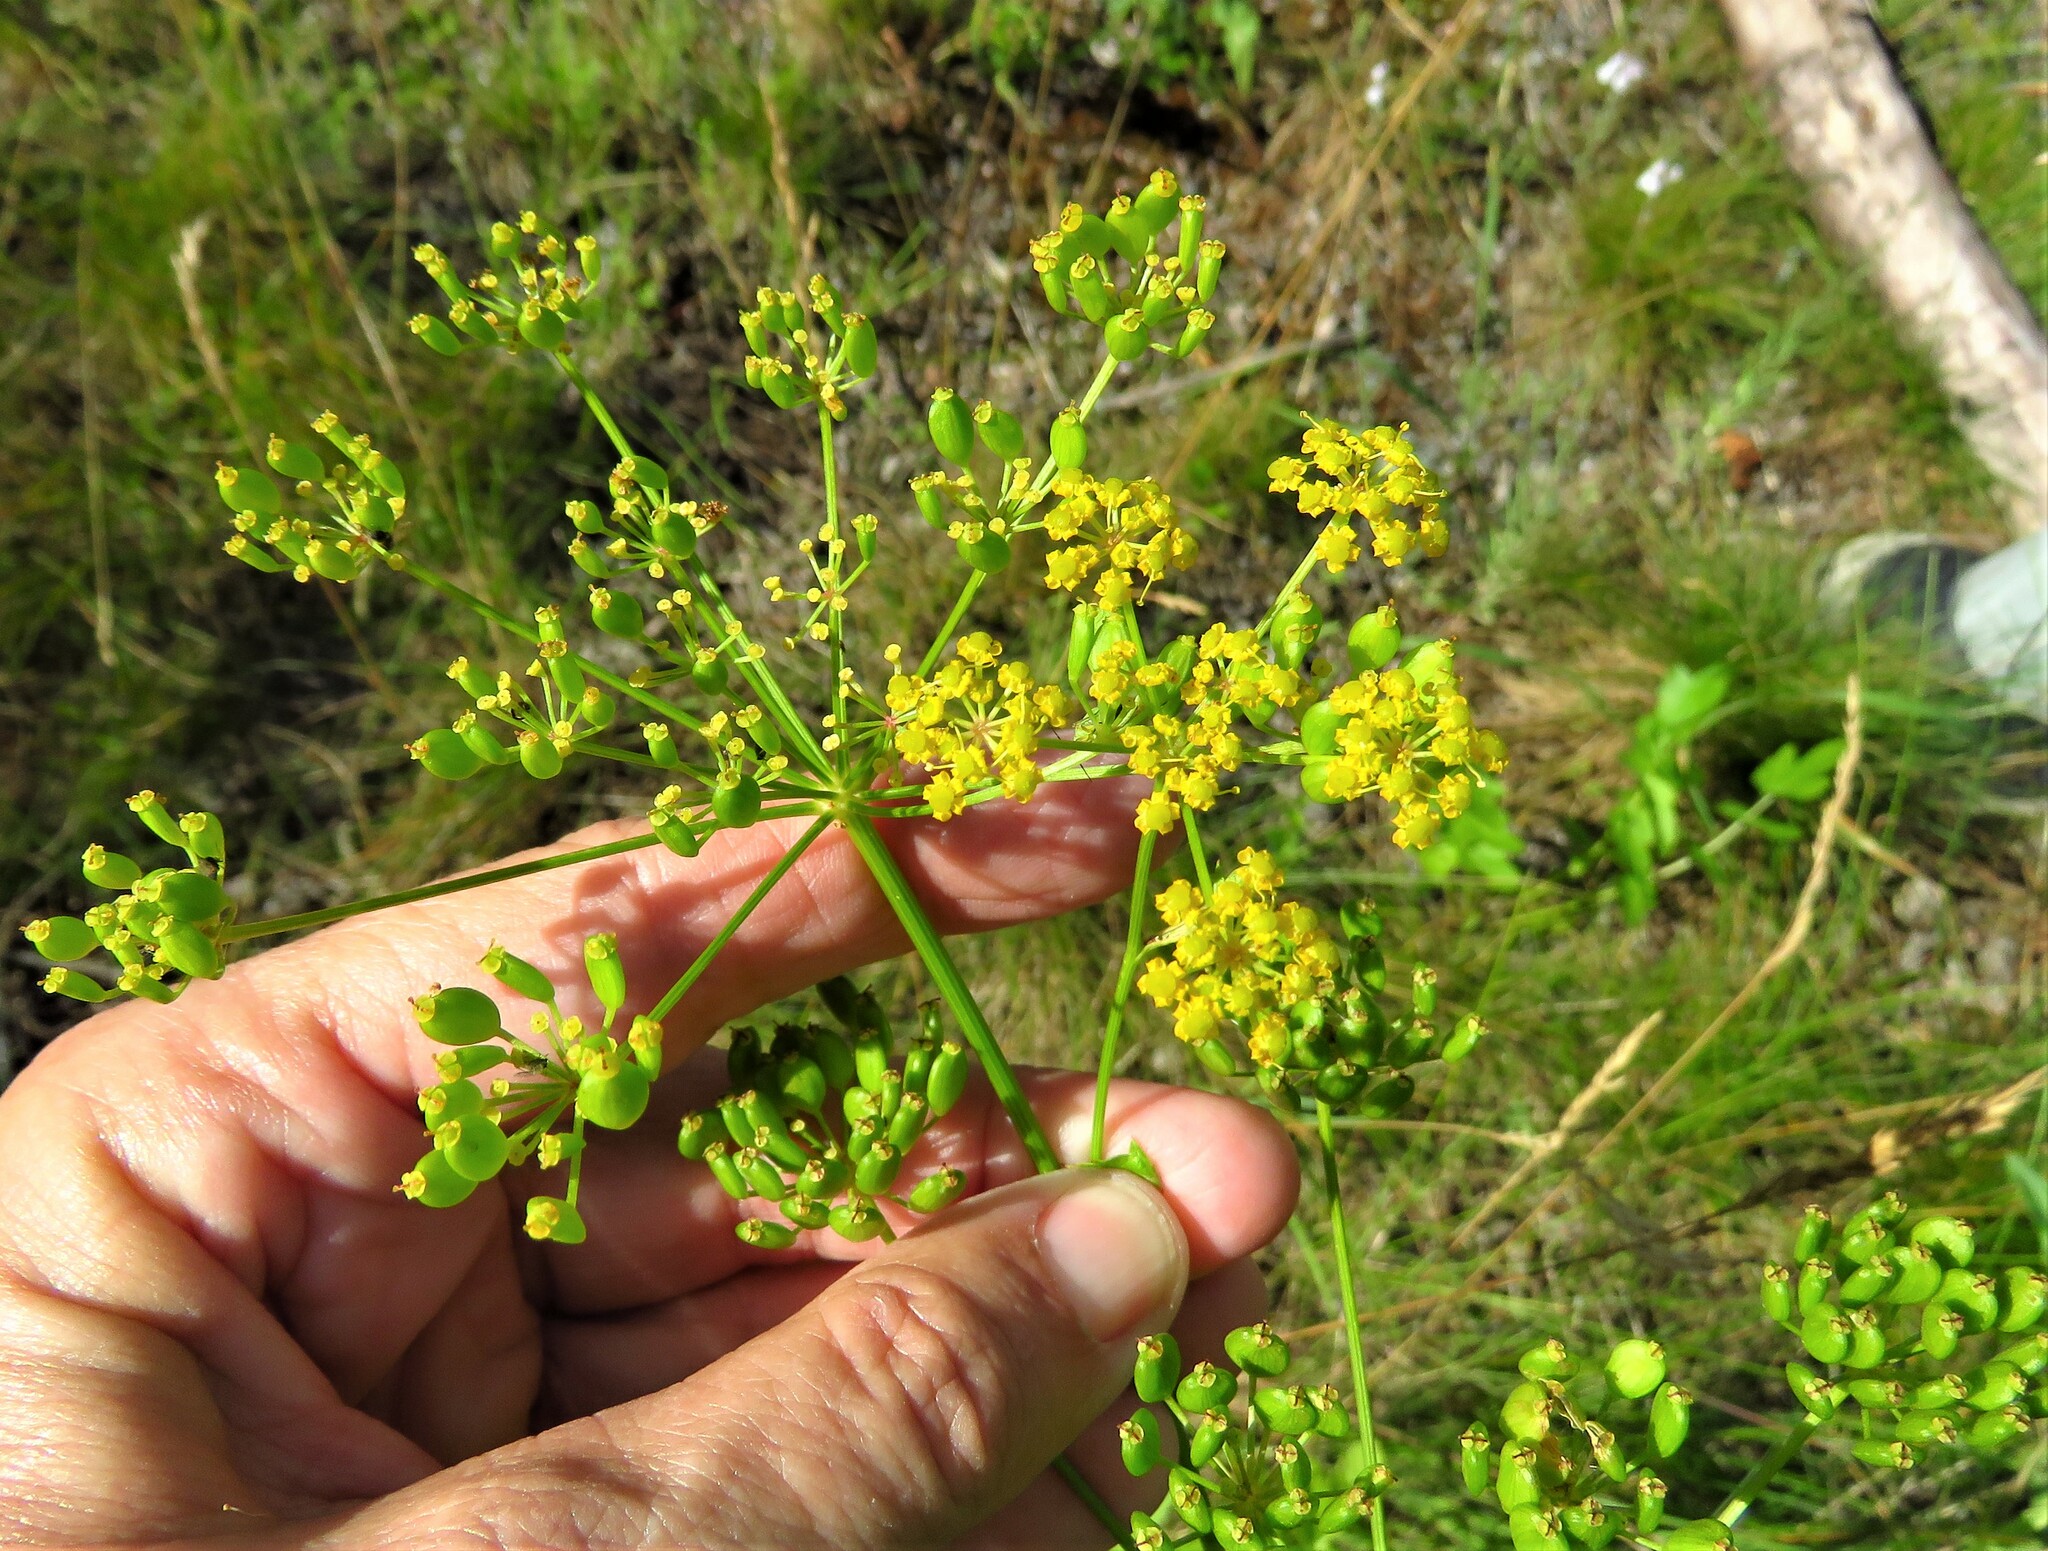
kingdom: Plantae
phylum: Tracheophyta
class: Magnoliopsida
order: Apiales
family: Apiaceae
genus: Pastinaca
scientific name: Pastinaca sativa
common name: Wild parsnip
